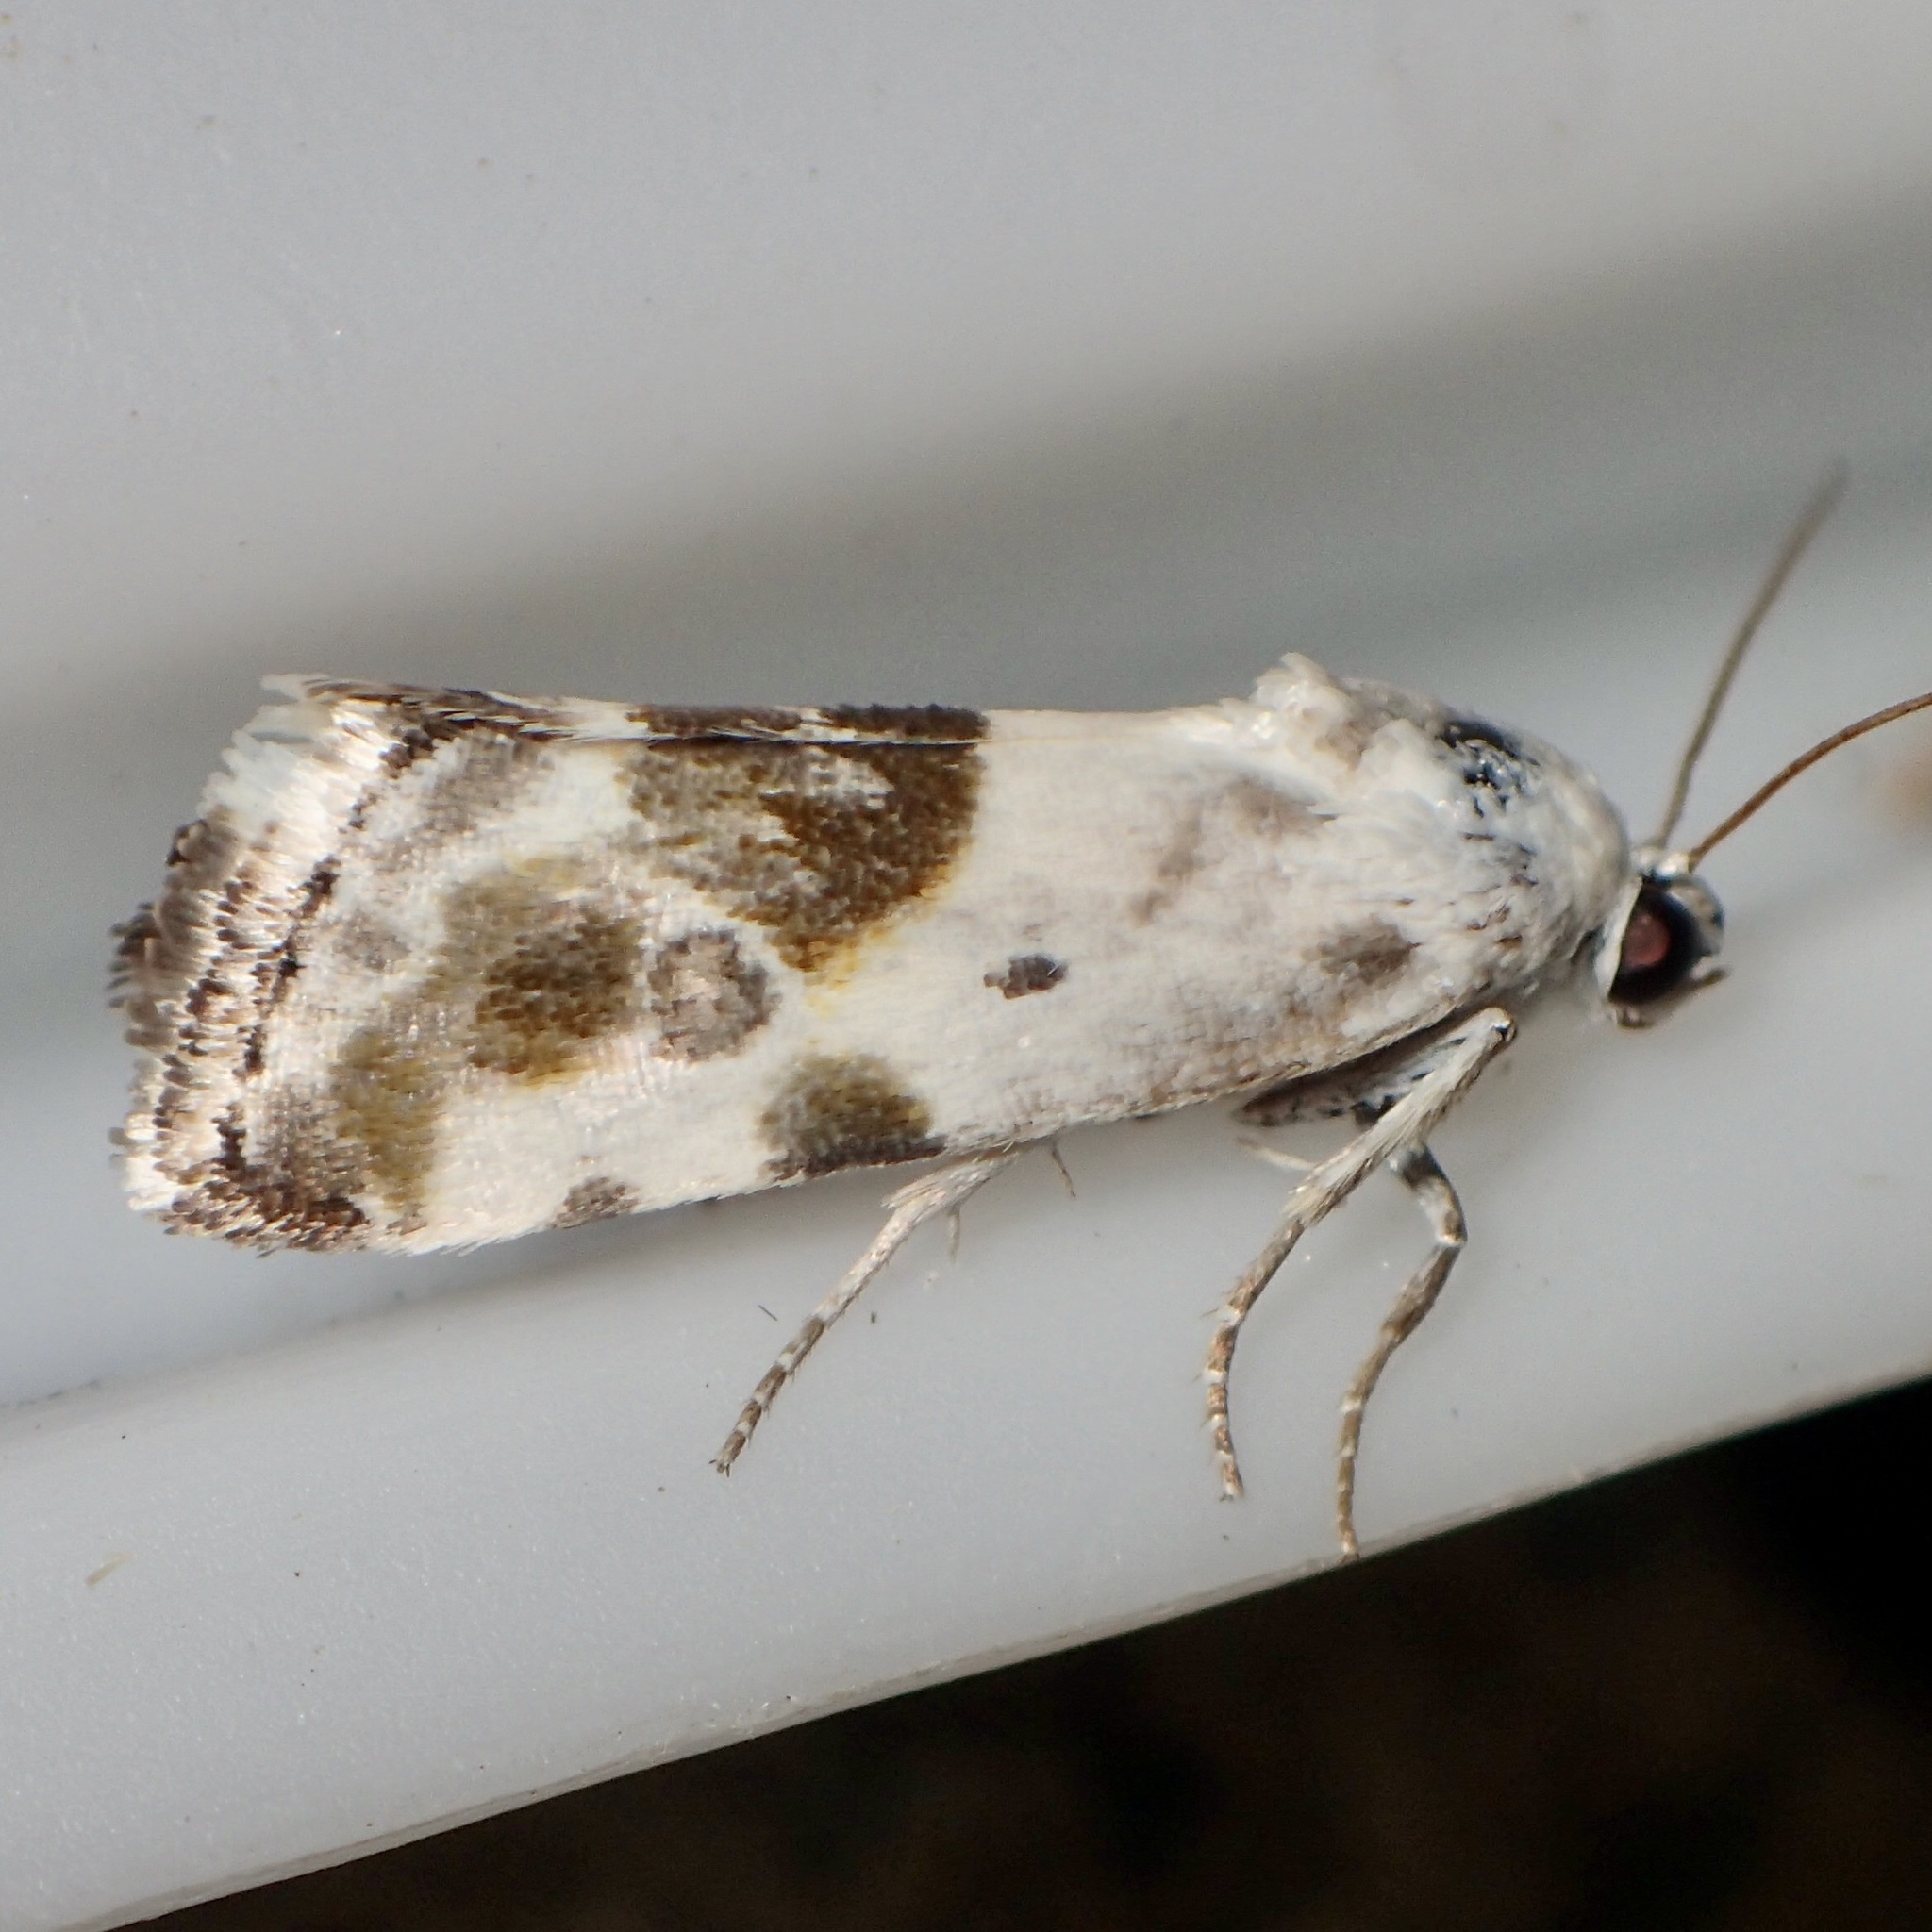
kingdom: Animalia
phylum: Arthropoda
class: Insecta
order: Lepidoptera
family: Noctuidae
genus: Acontia
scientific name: Acontia candefacta
